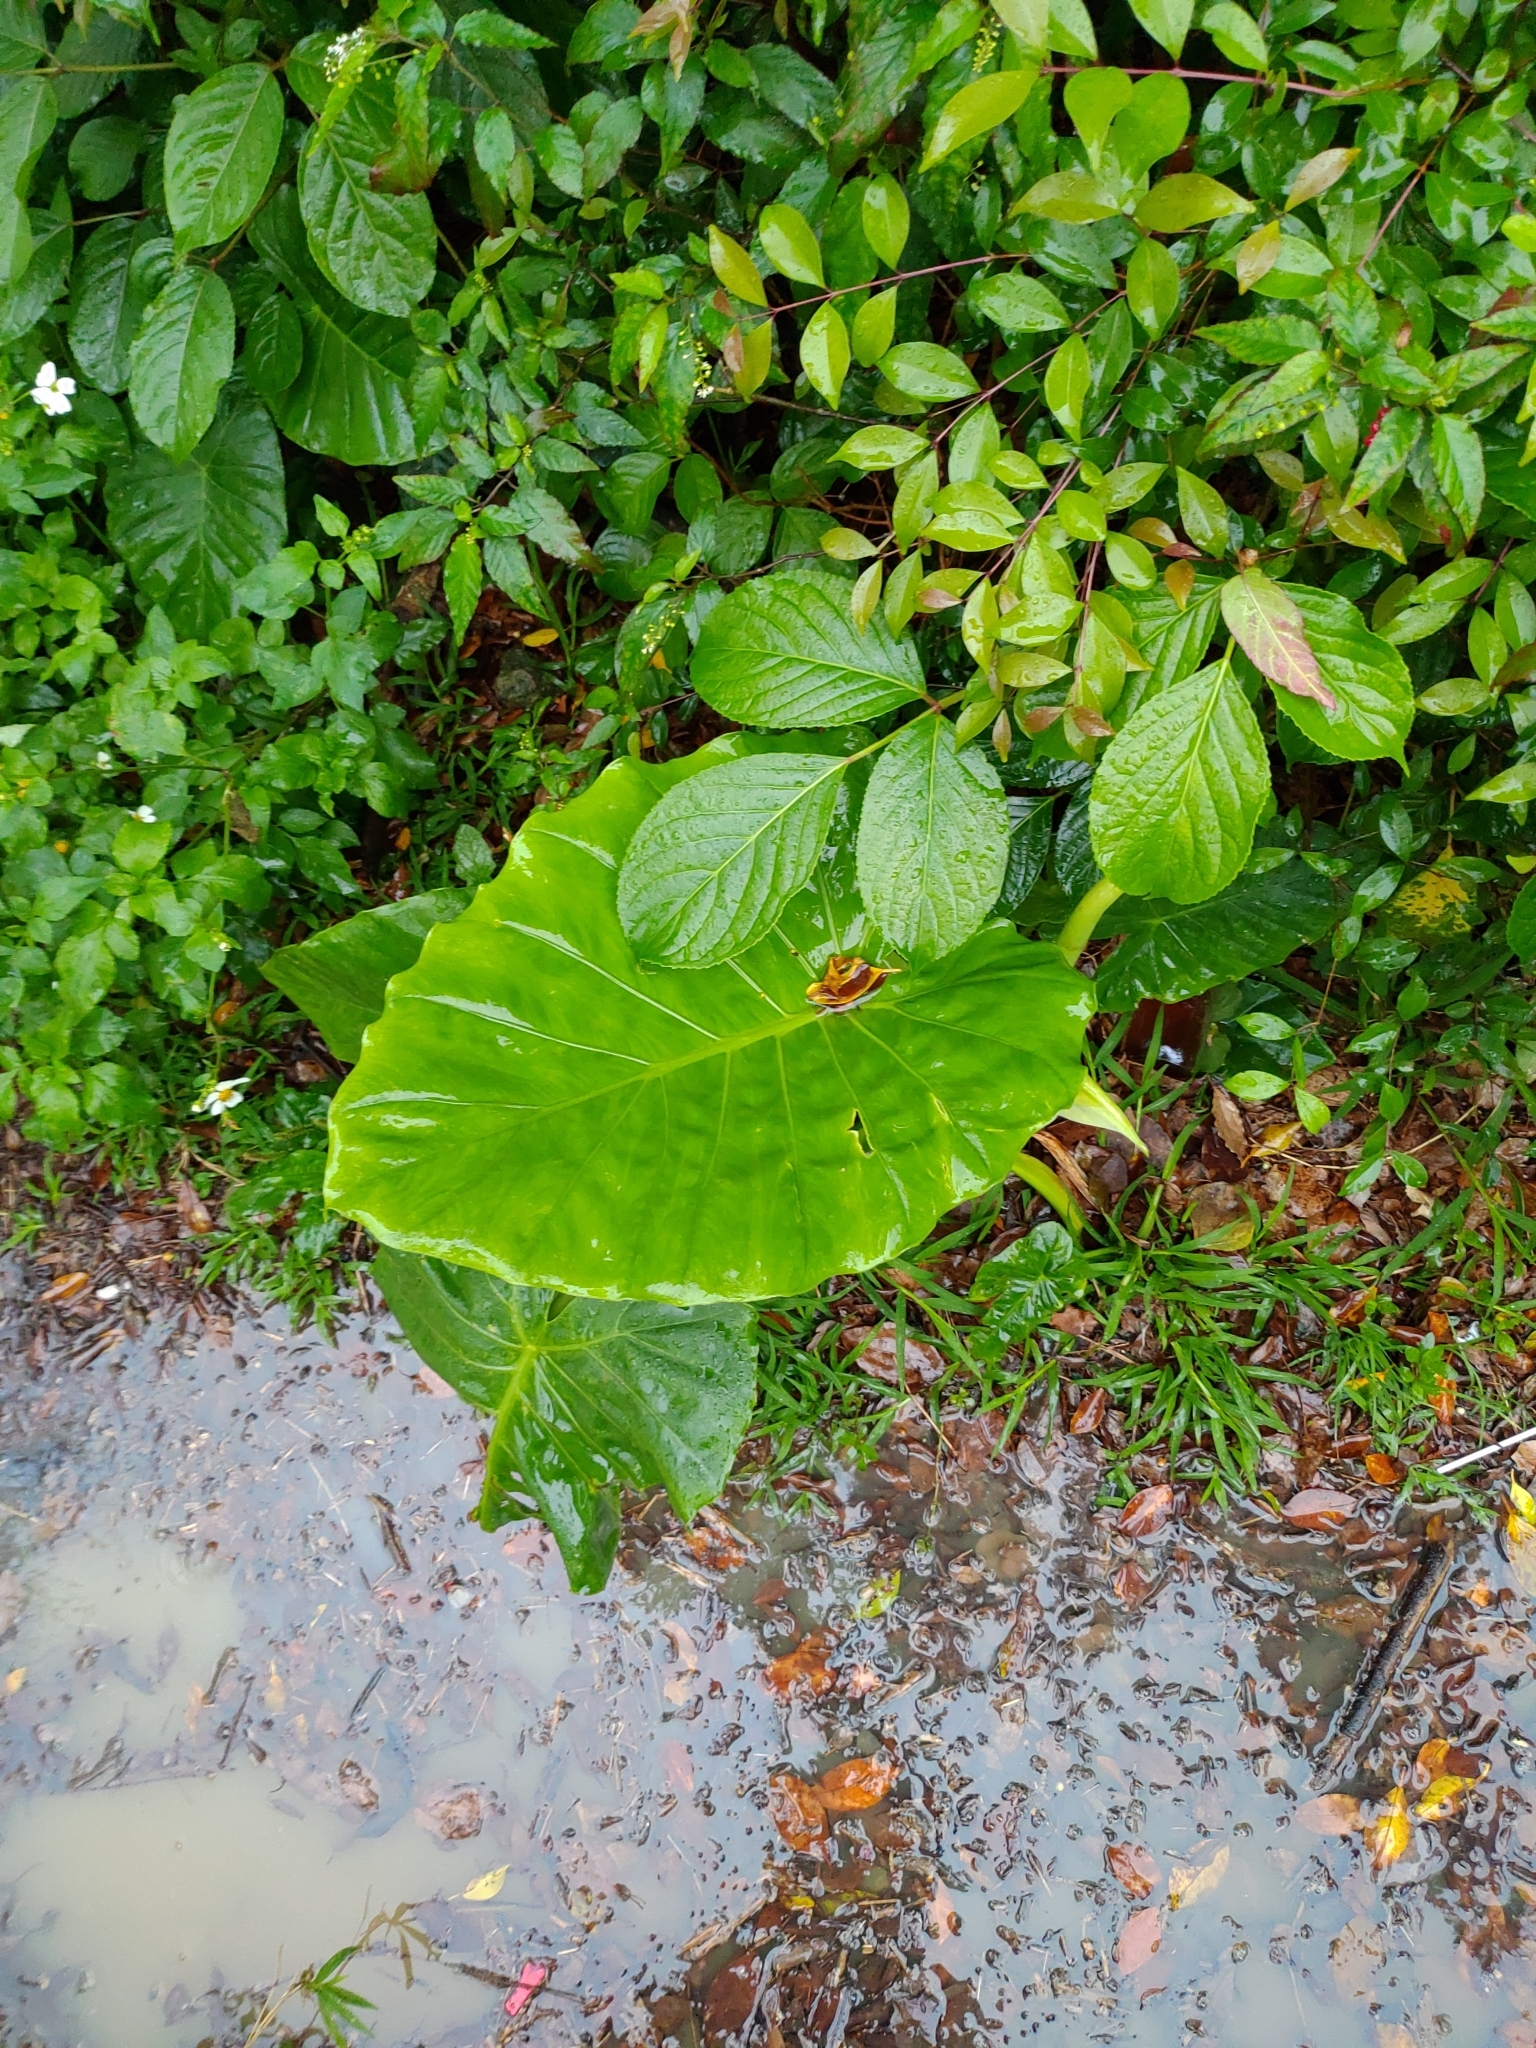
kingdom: Plantae
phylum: Tracheophyta
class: Liliopsida
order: Alismatales
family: Araceae
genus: Alocasia
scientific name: Alocasia odora
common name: Asian taro
